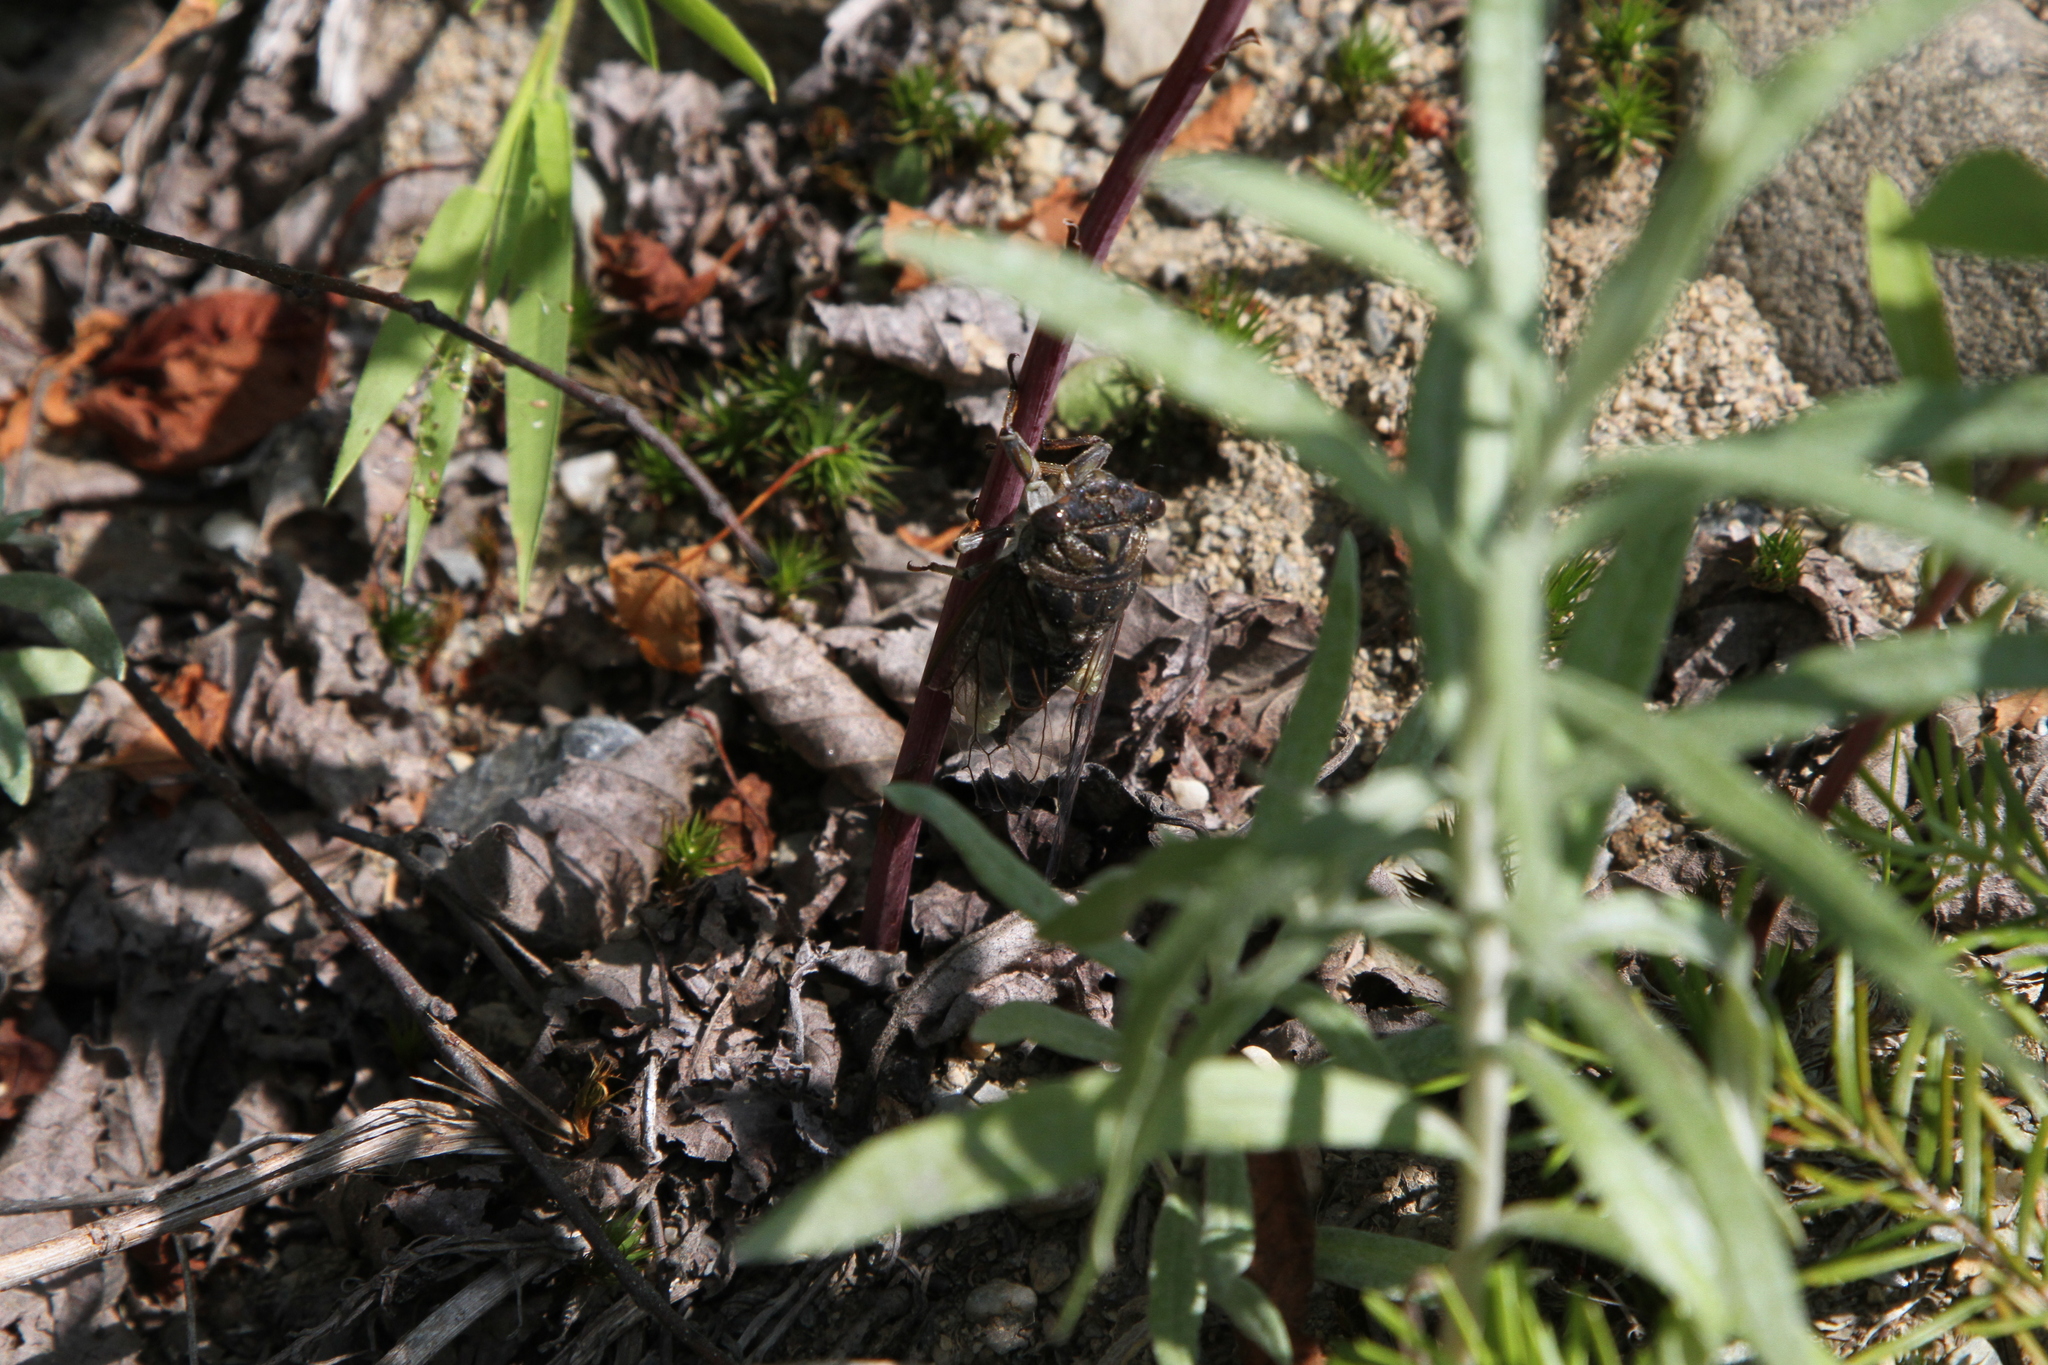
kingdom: Animalia
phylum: Arthropoda
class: Insecta
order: Hemiptera
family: Cicadidae
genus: Neotibicen
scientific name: Neotibicen canicularis
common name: God-day cicada
